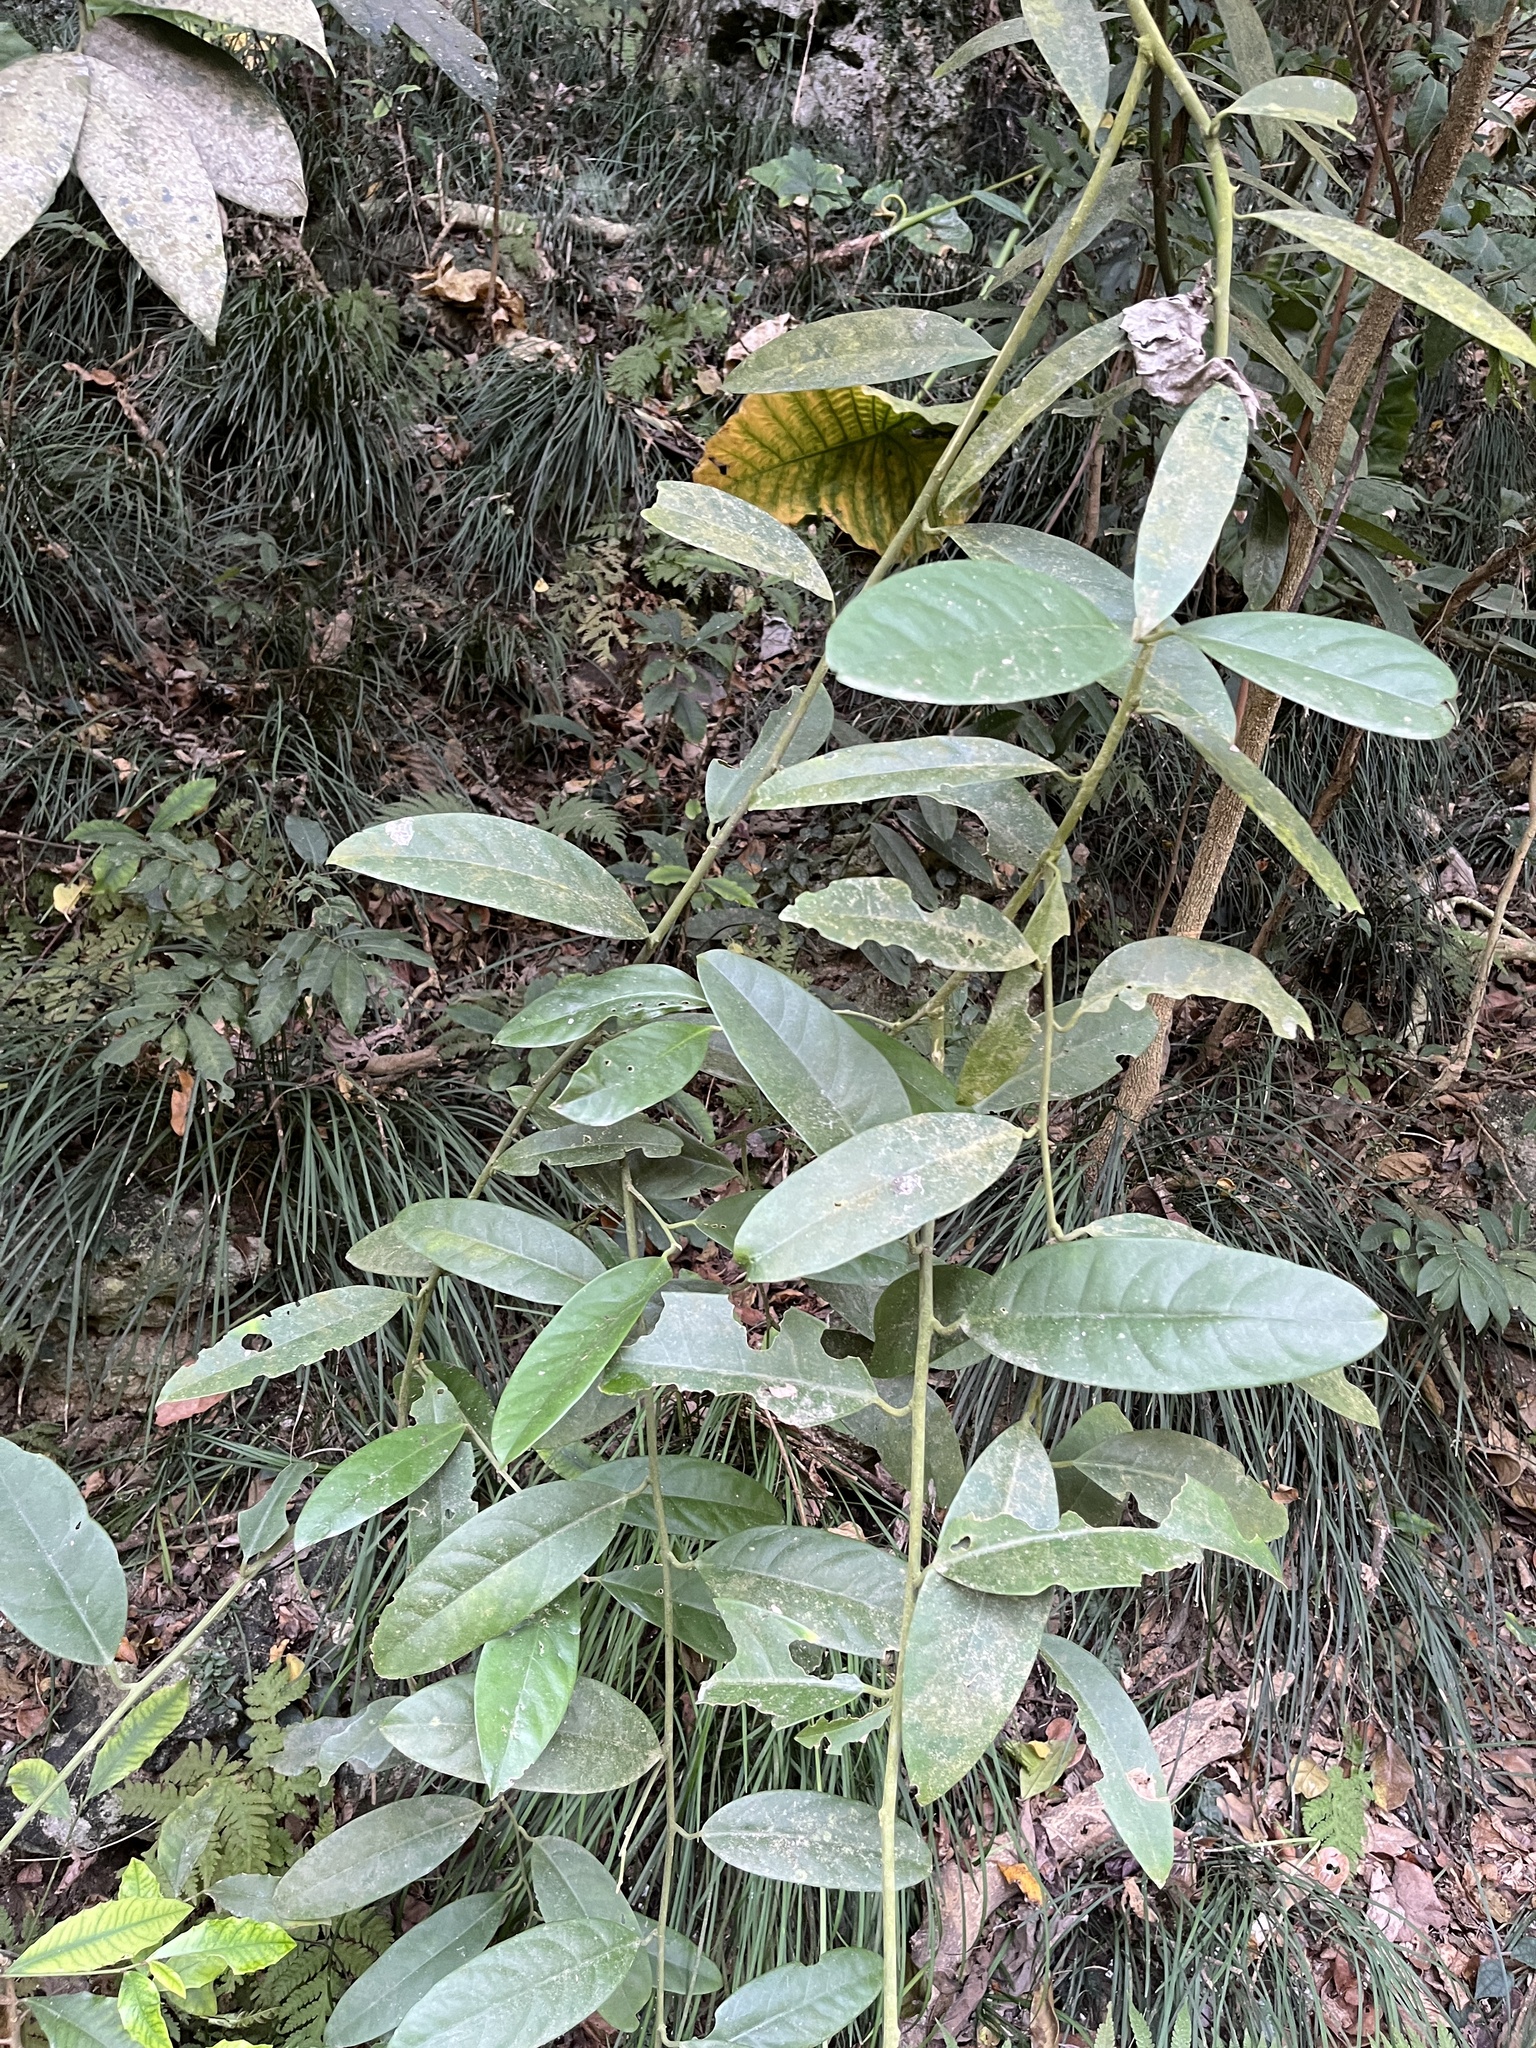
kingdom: Plantae
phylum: Tracheophyta
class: Magnoliopsida
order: Brassicales
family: Capparaceae
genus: Capparis
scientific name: Capparis formosana
